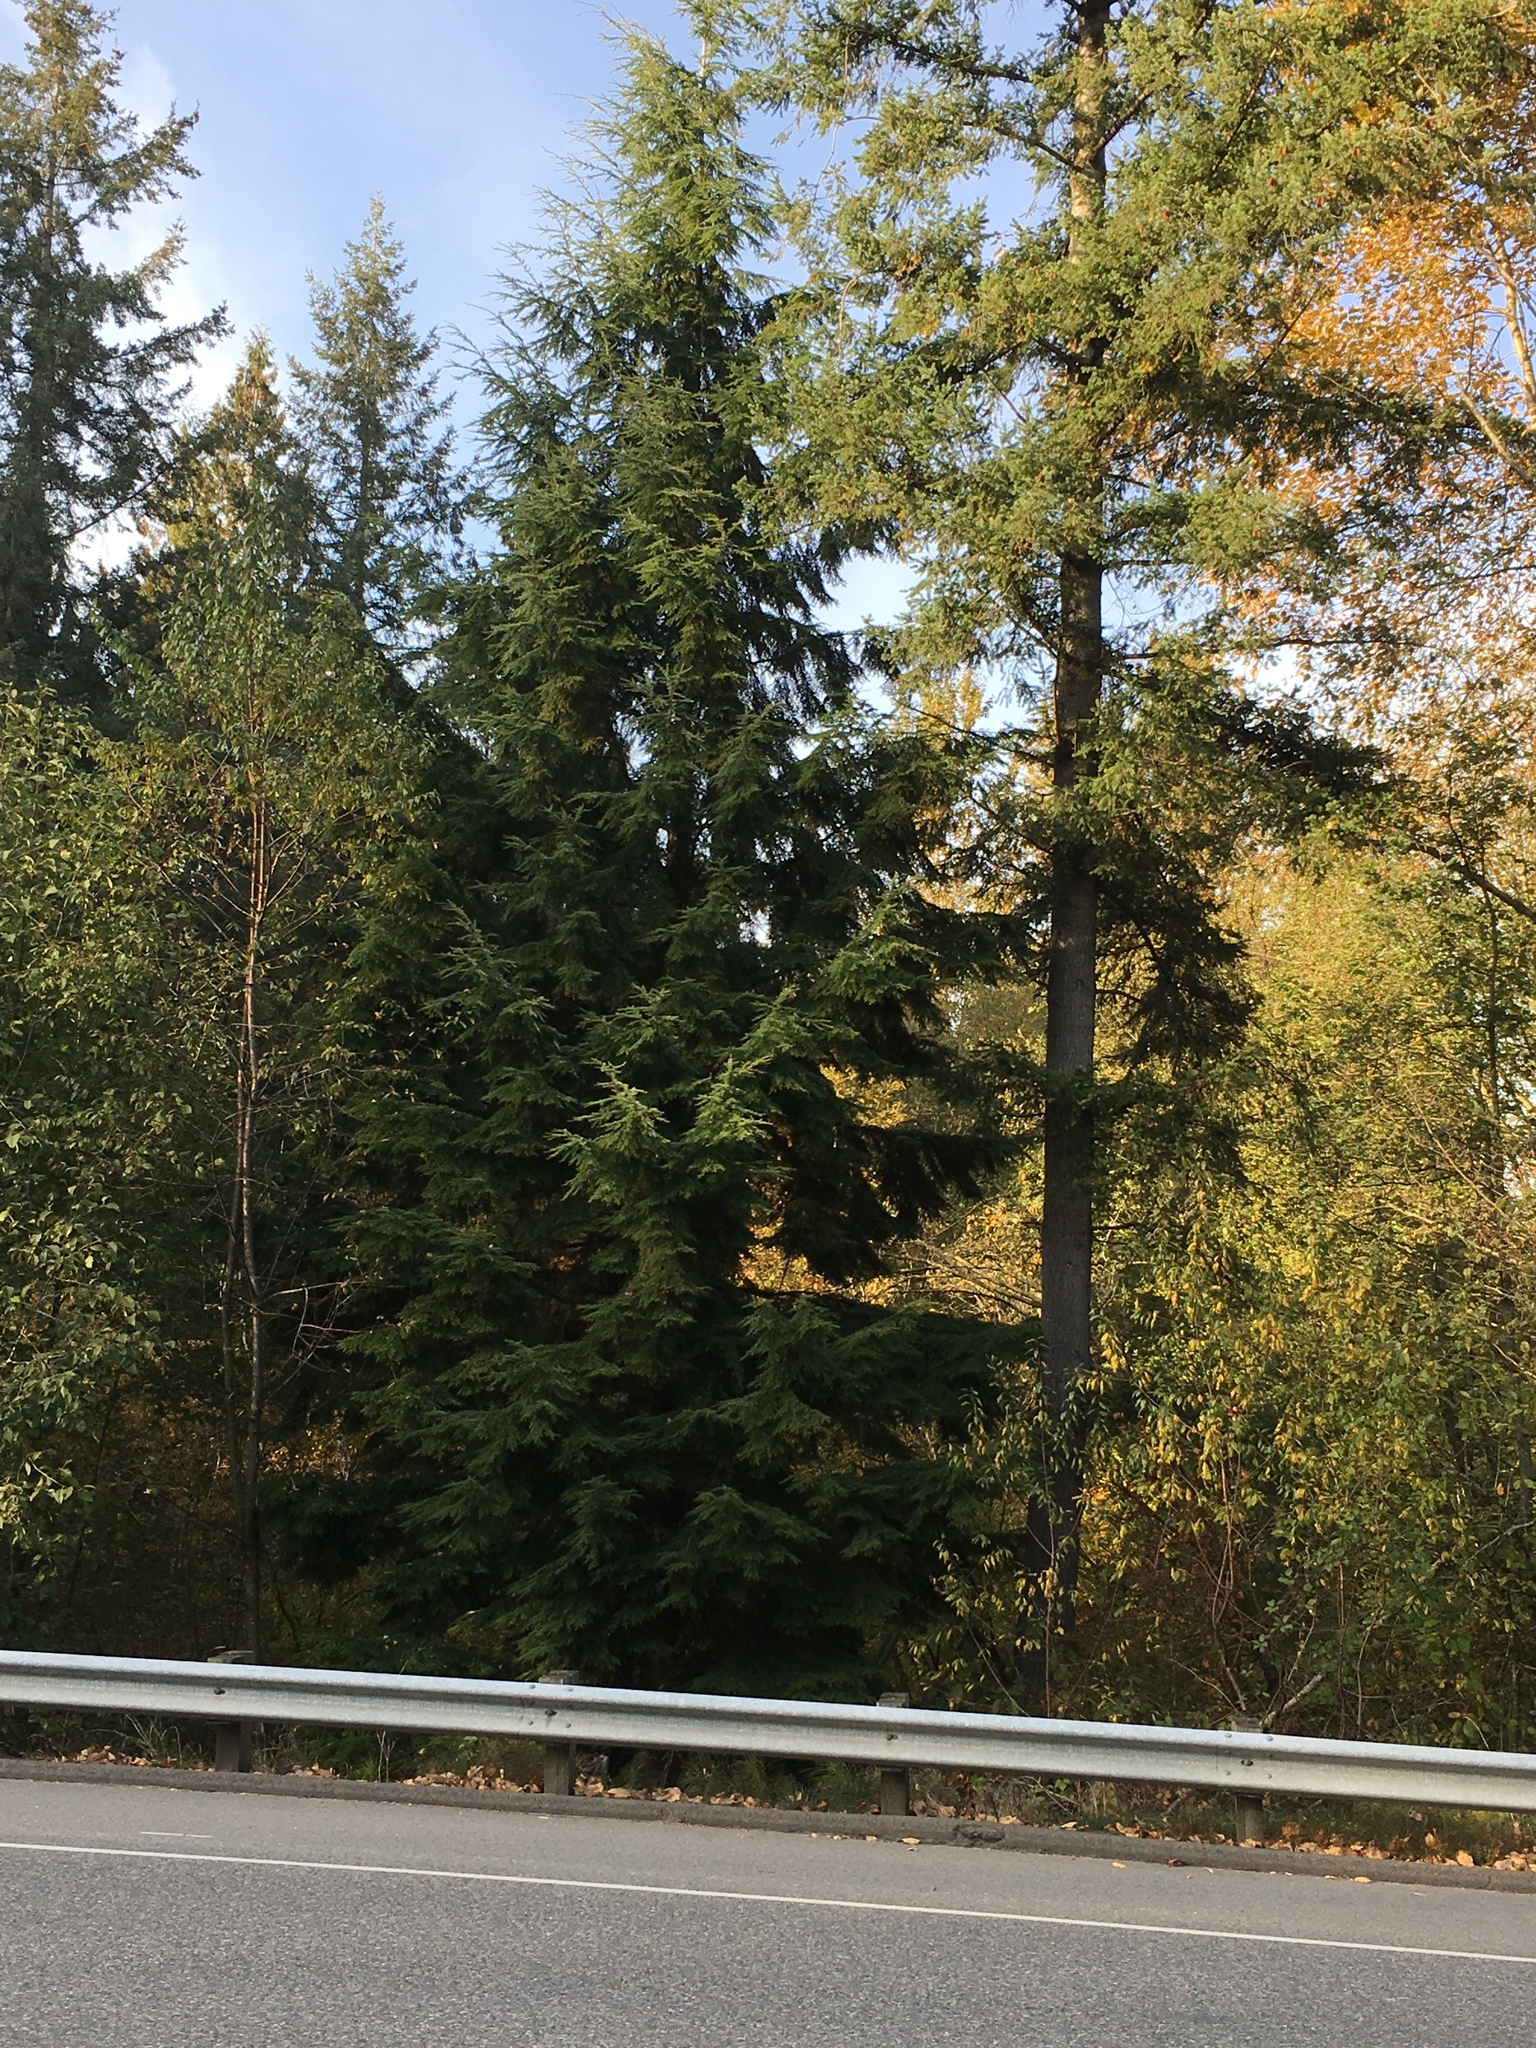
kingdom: Plantae
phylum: Tracheophyta
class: Pinopsida
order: Pinales
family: Pinaceae
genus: Tsuga
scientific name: Tsuga heterophylla
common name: Western hemlock
